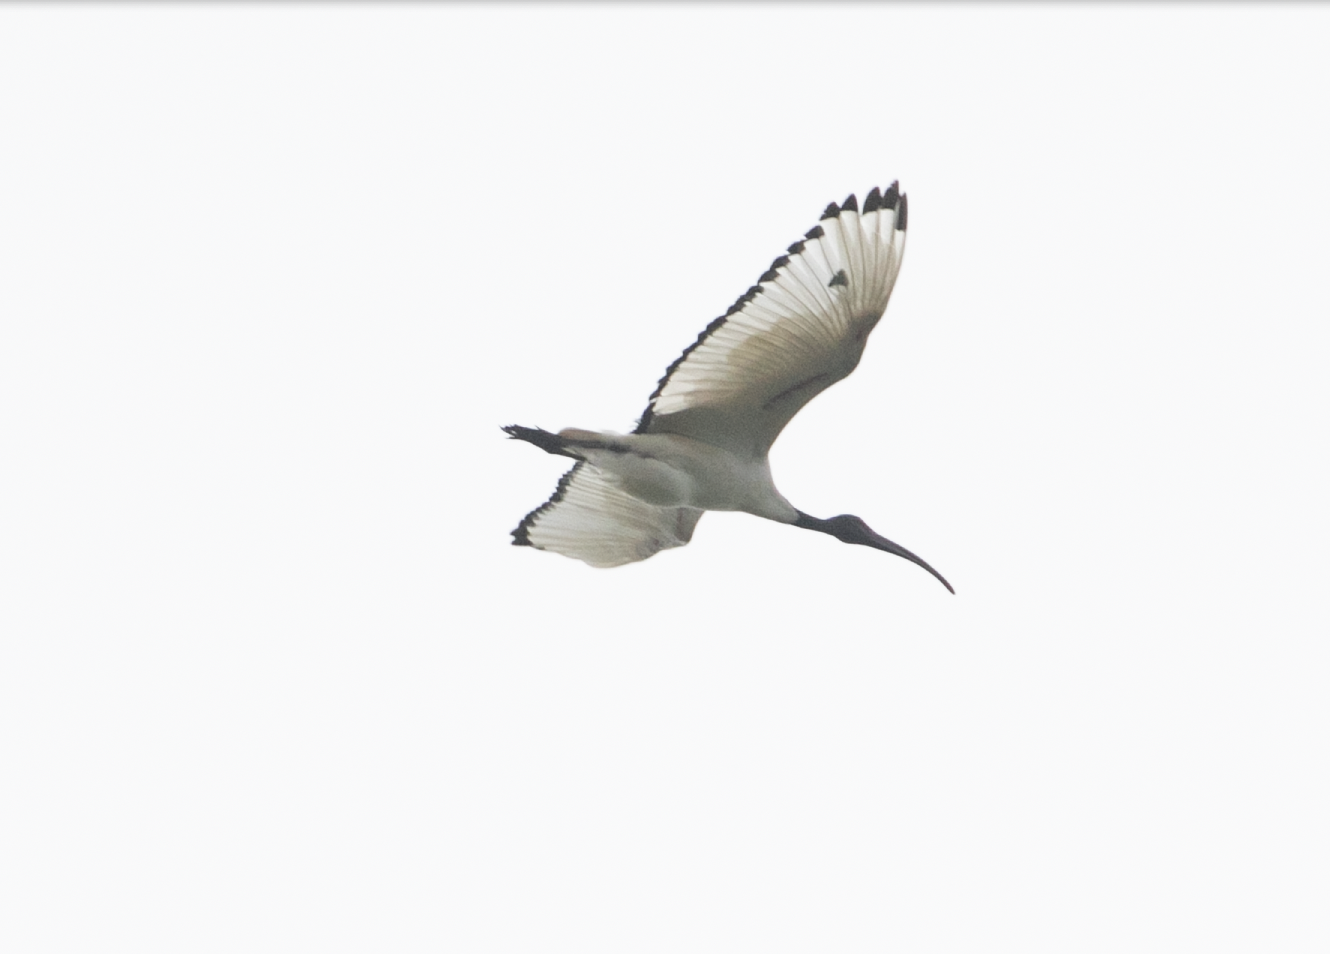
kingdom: Animalia
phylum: Chordata
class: Aves
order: Pelecaniformes
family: Threskiornithidae
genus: Threskiornis
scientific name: Threskiornis aethiopicus
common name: Sacred ibis
